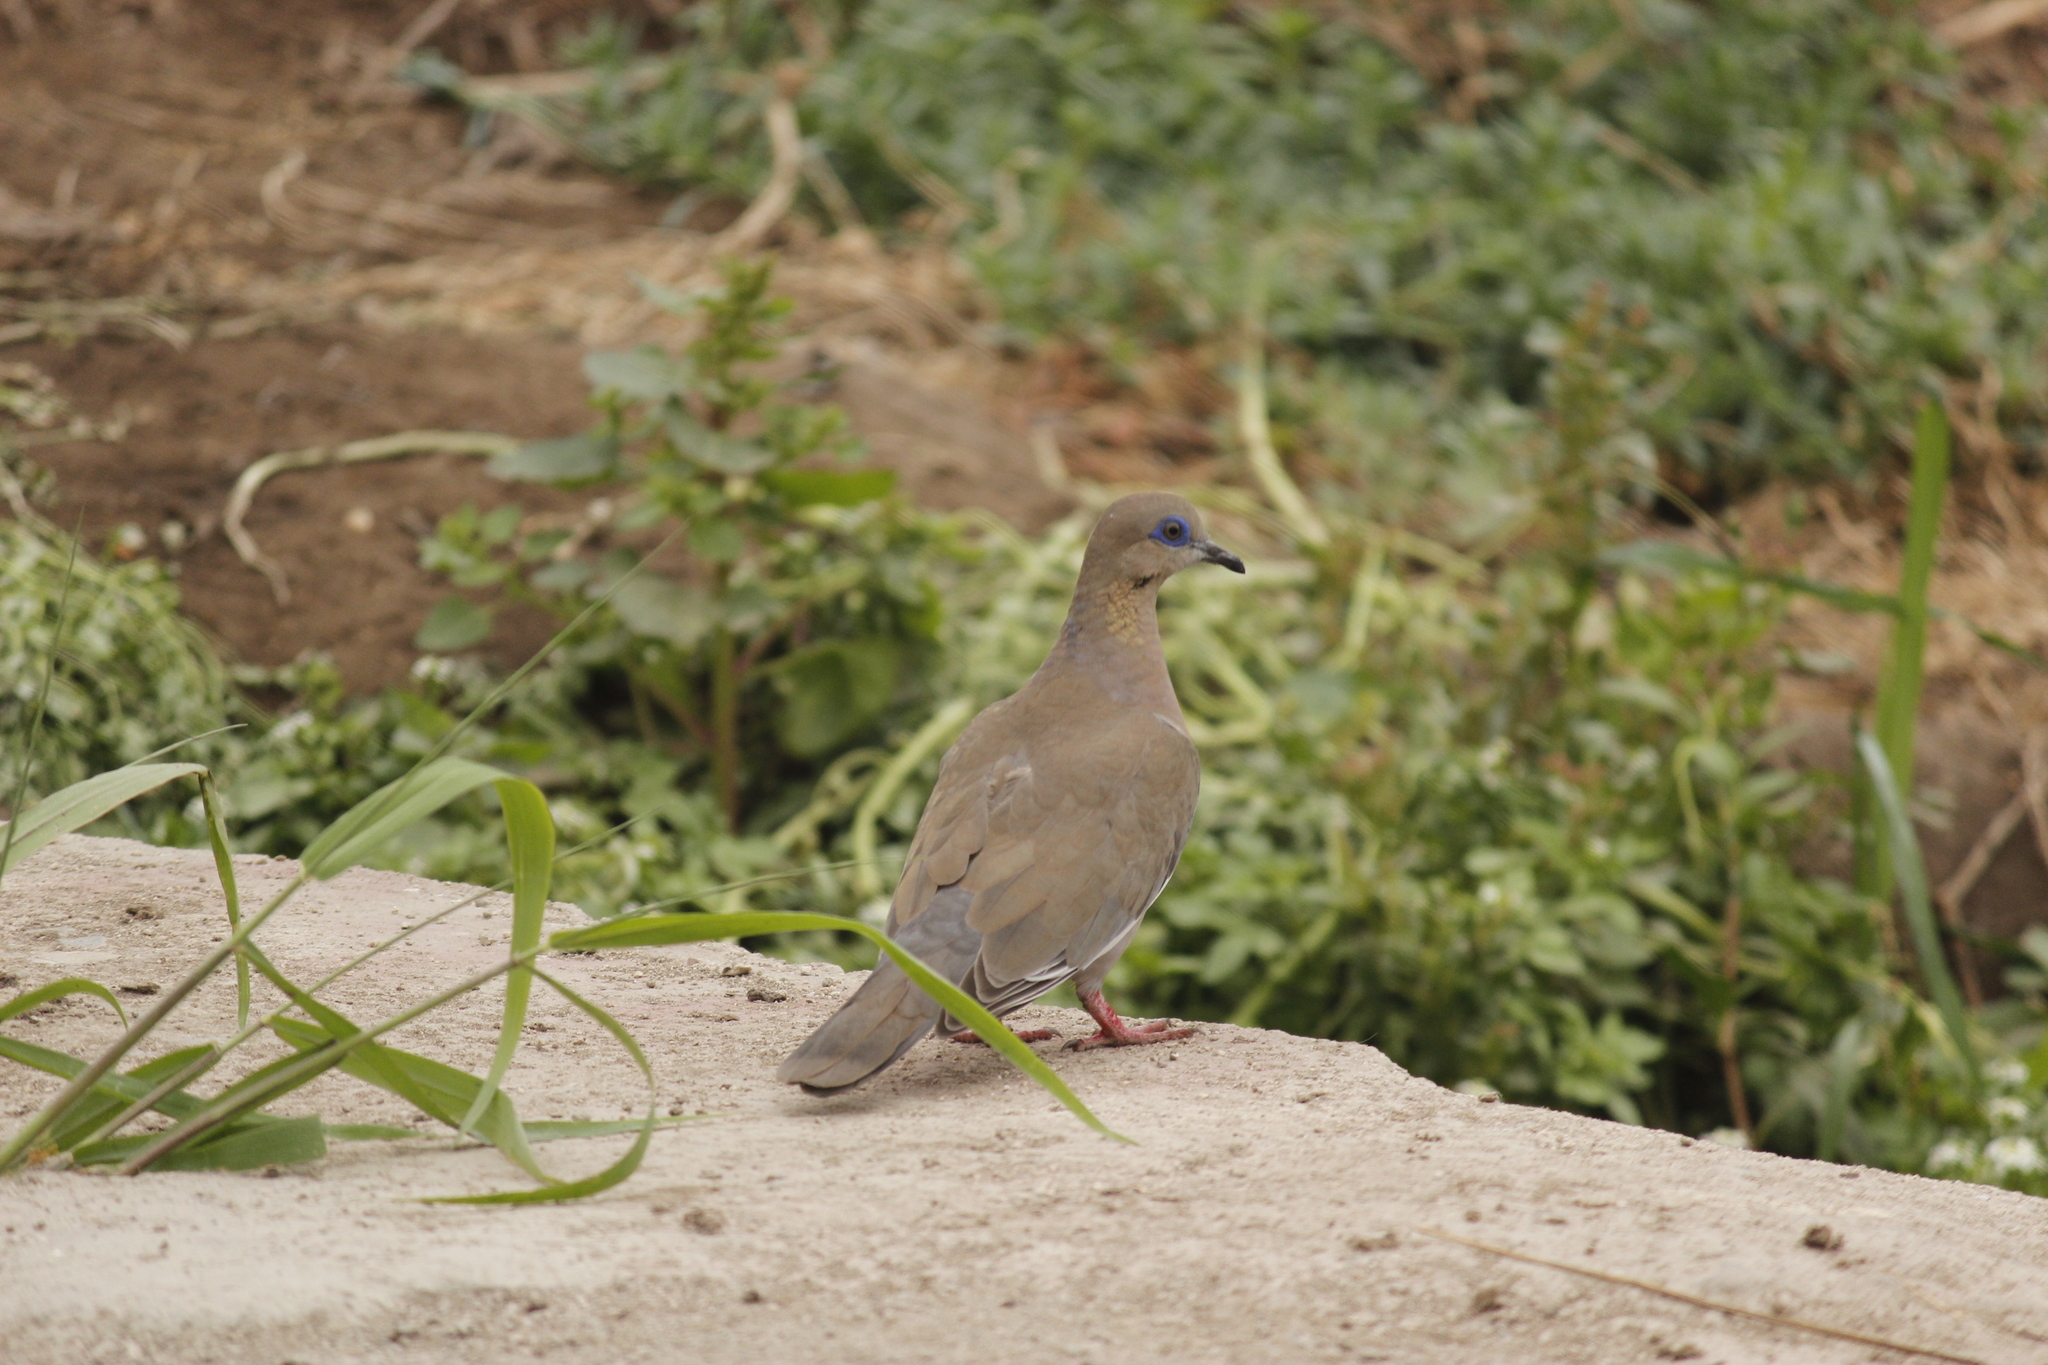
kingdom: Animalia
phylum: Chordata
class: Aves
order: Columbiformes
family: Columbidae
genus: Zenaida
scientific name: Zenaida meloda
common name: West peruvian dove
